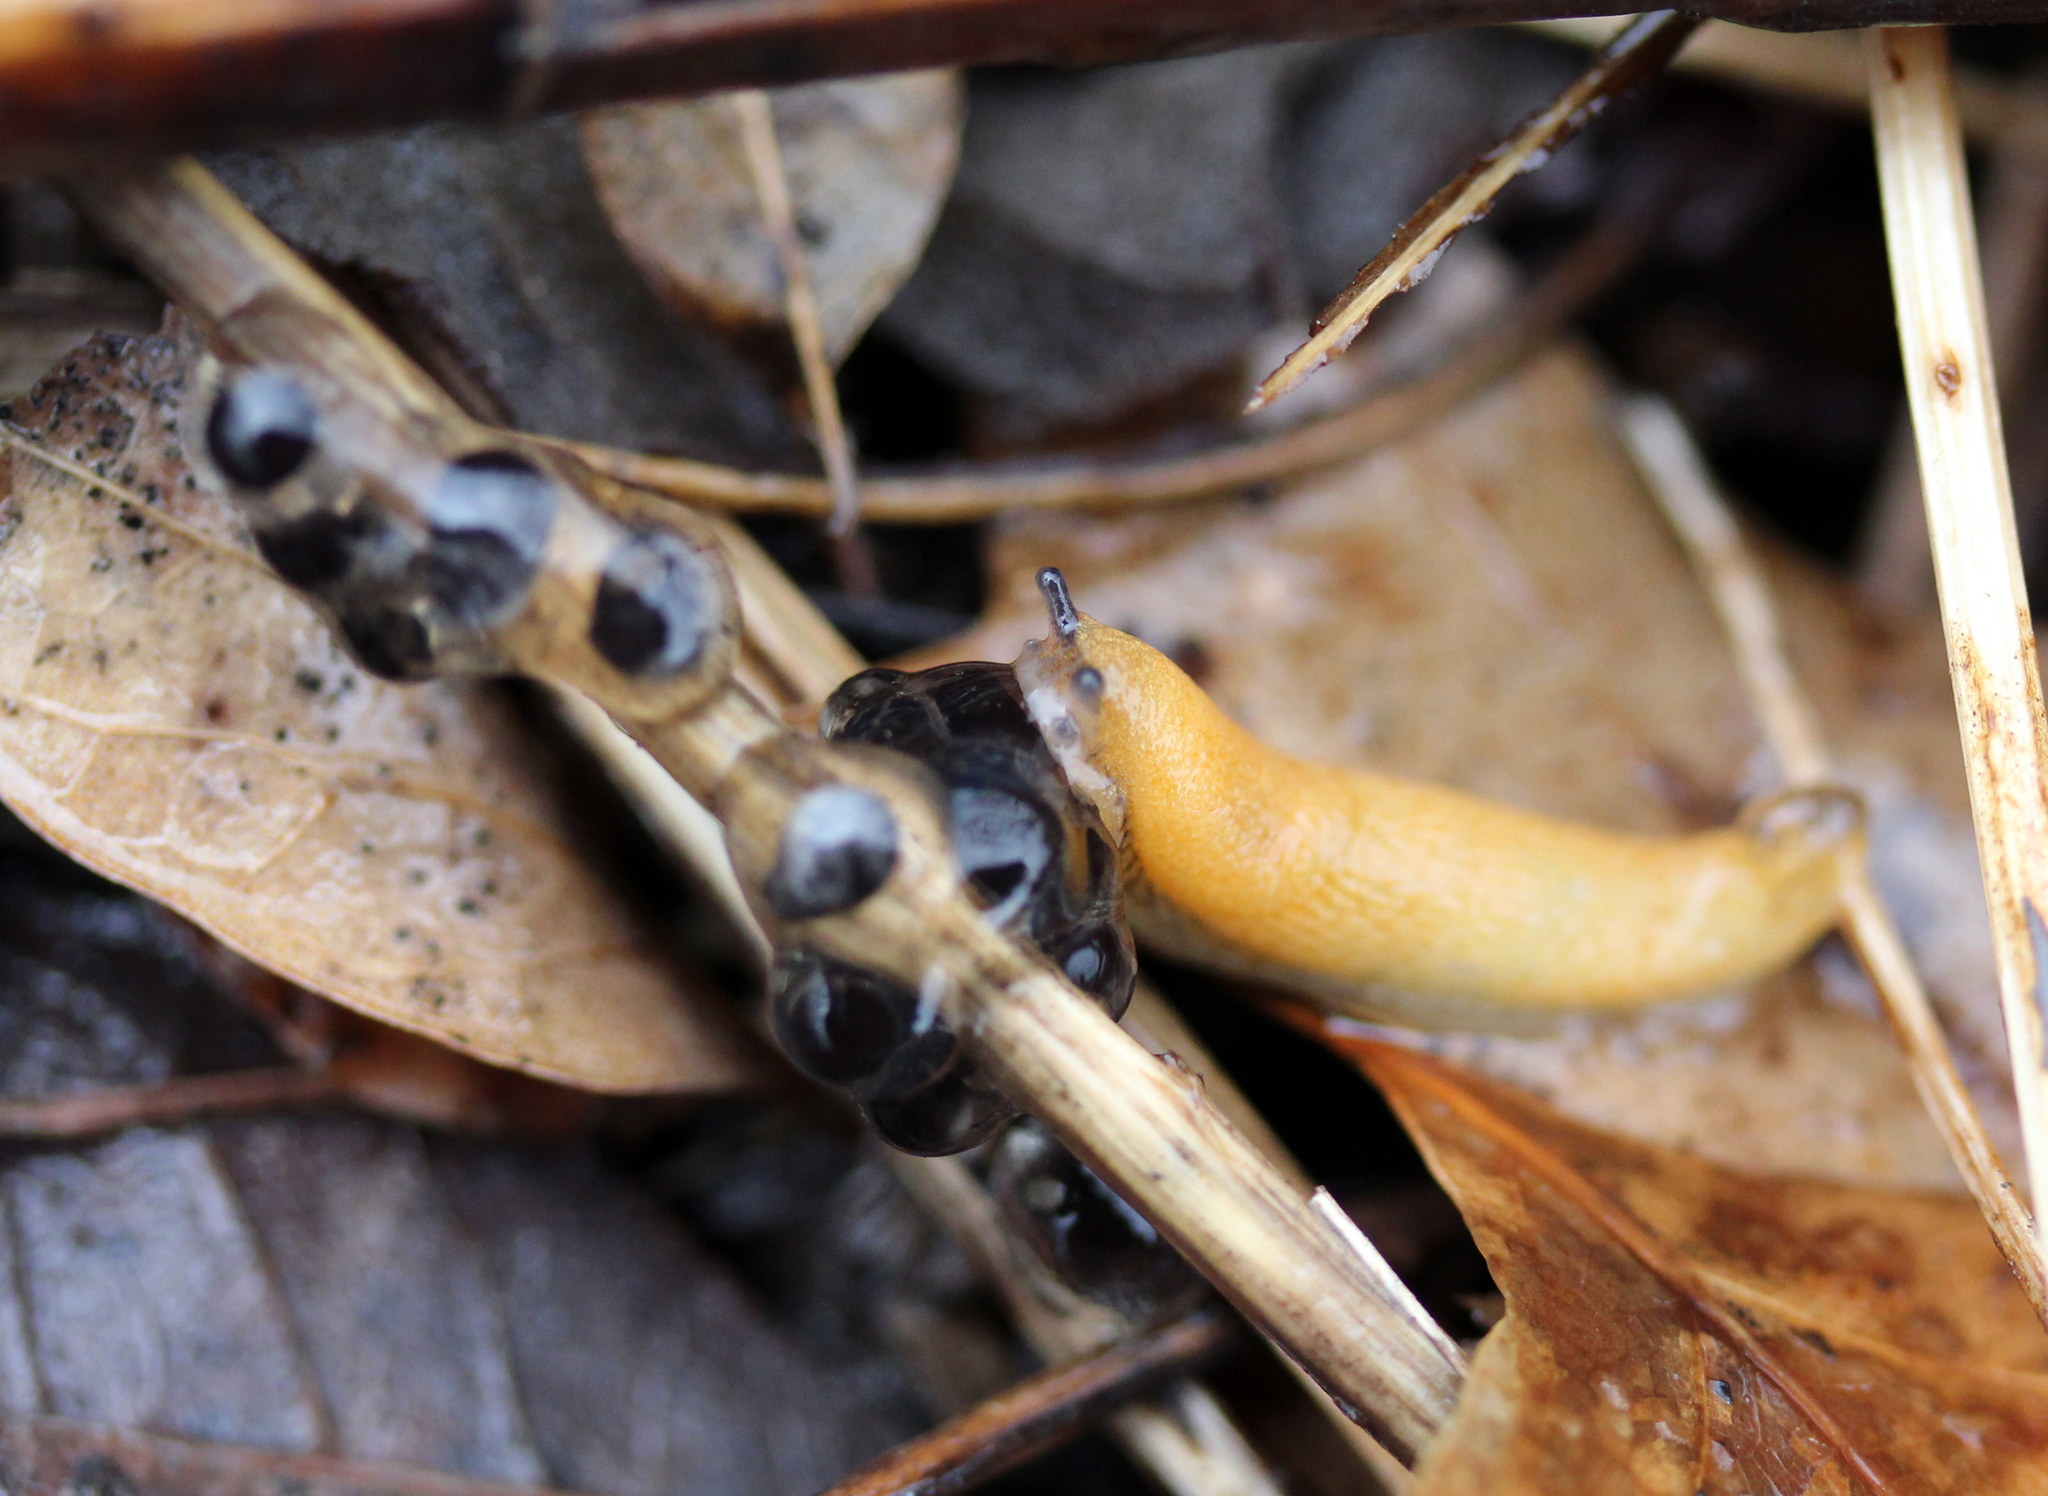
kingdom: Animalia
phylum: Mollusca
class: Gastropoda
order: Stylommatophora
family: Arionidae
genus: Arion
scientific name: Arion subfuscus
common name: Dusky arion
